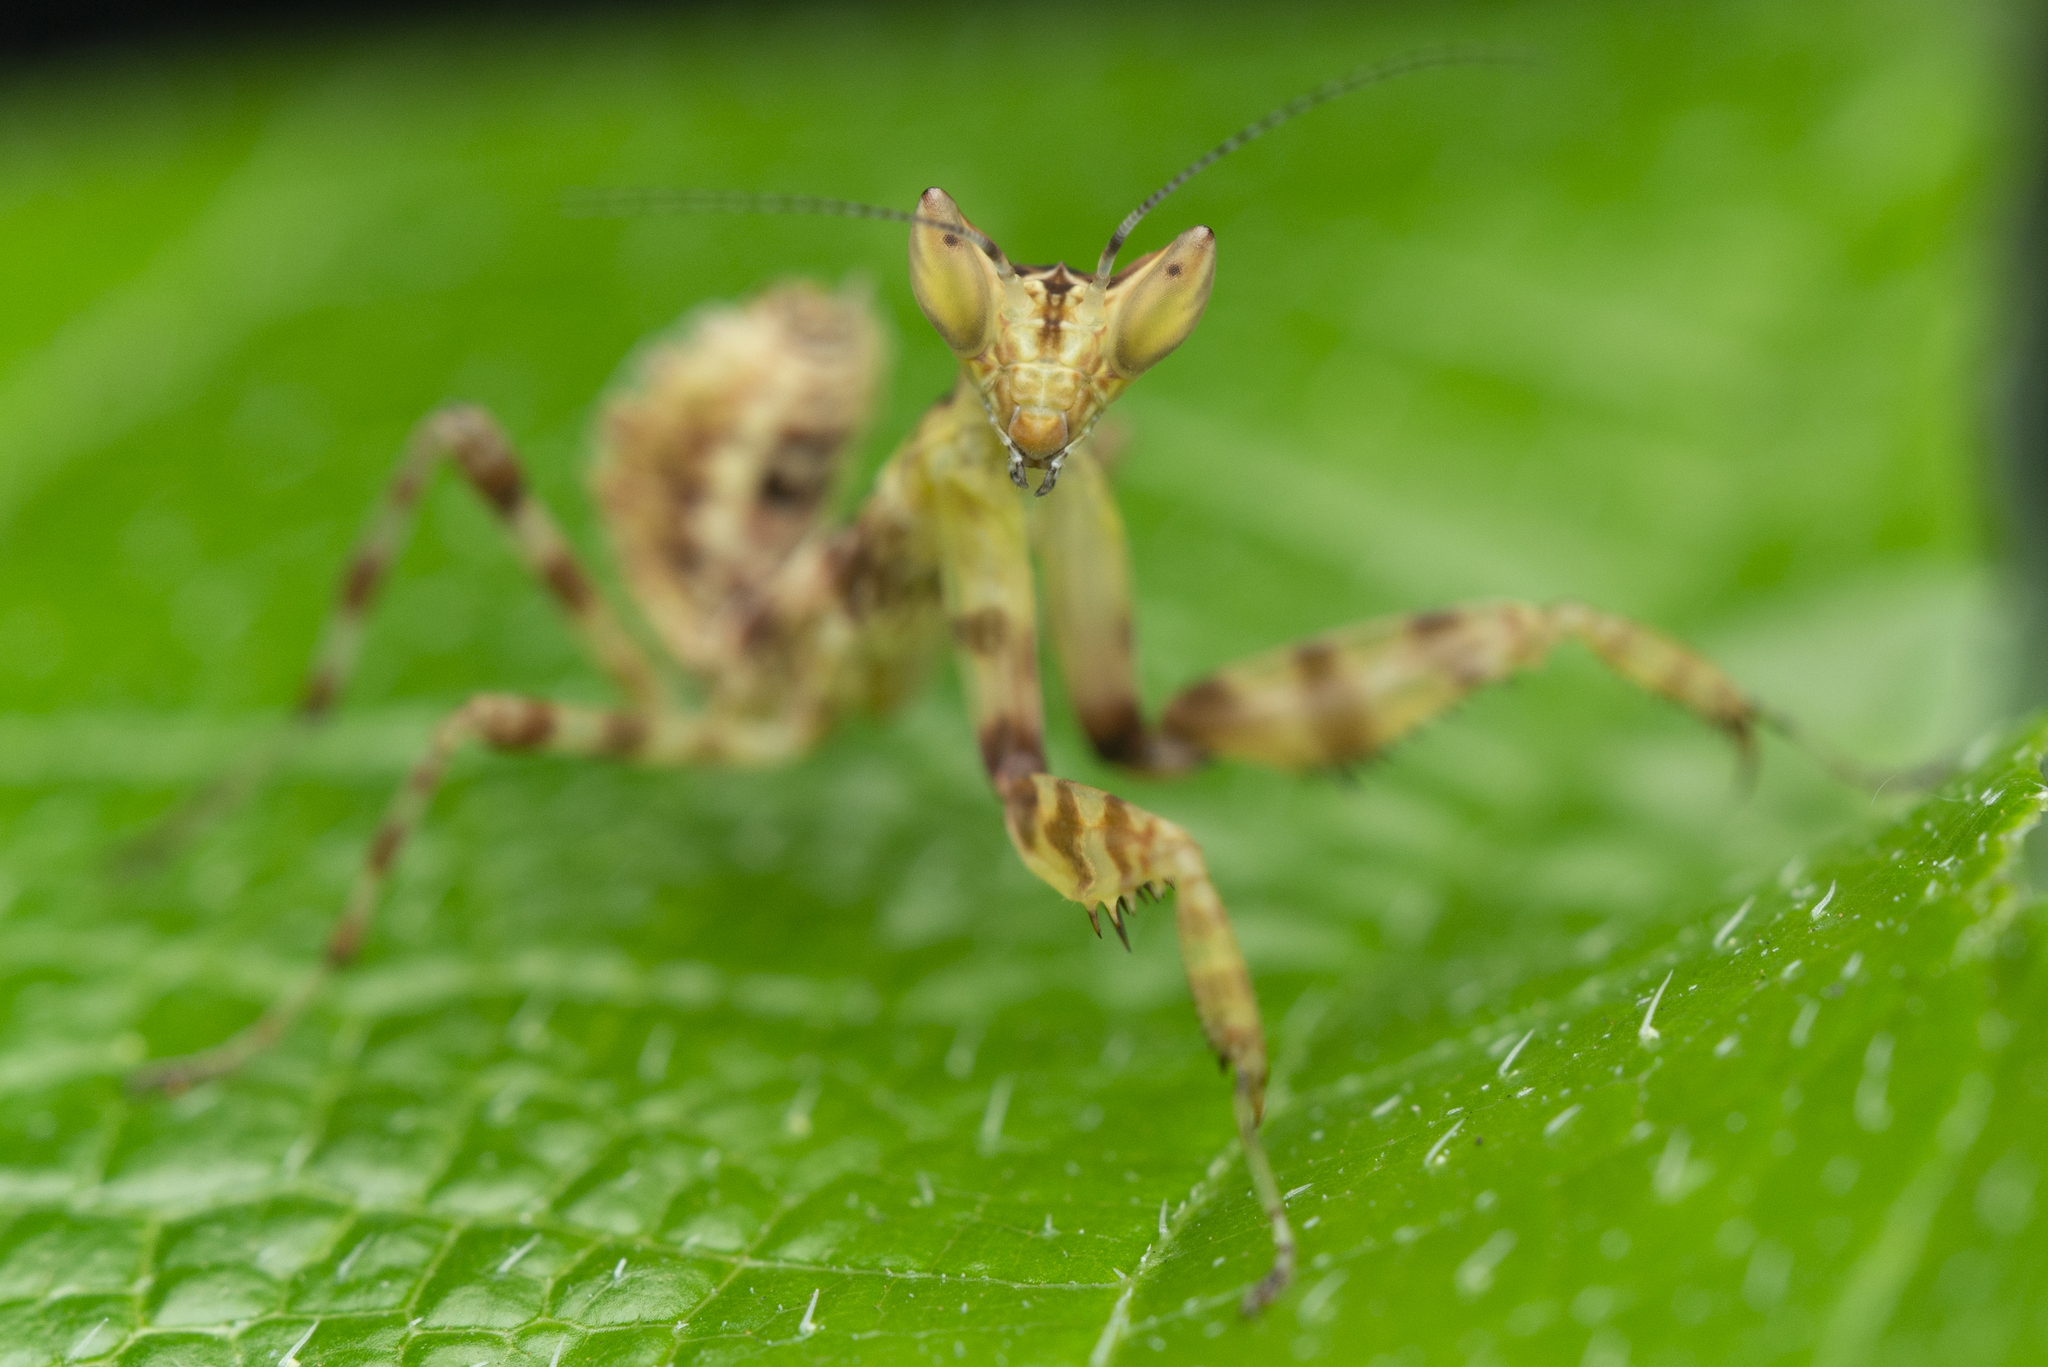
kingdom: Animalia
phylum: Arthropoda
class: Insecta
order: Mantodea
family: Hymenopodidae
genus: Creobroter
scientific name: Creobroter gemmatus
